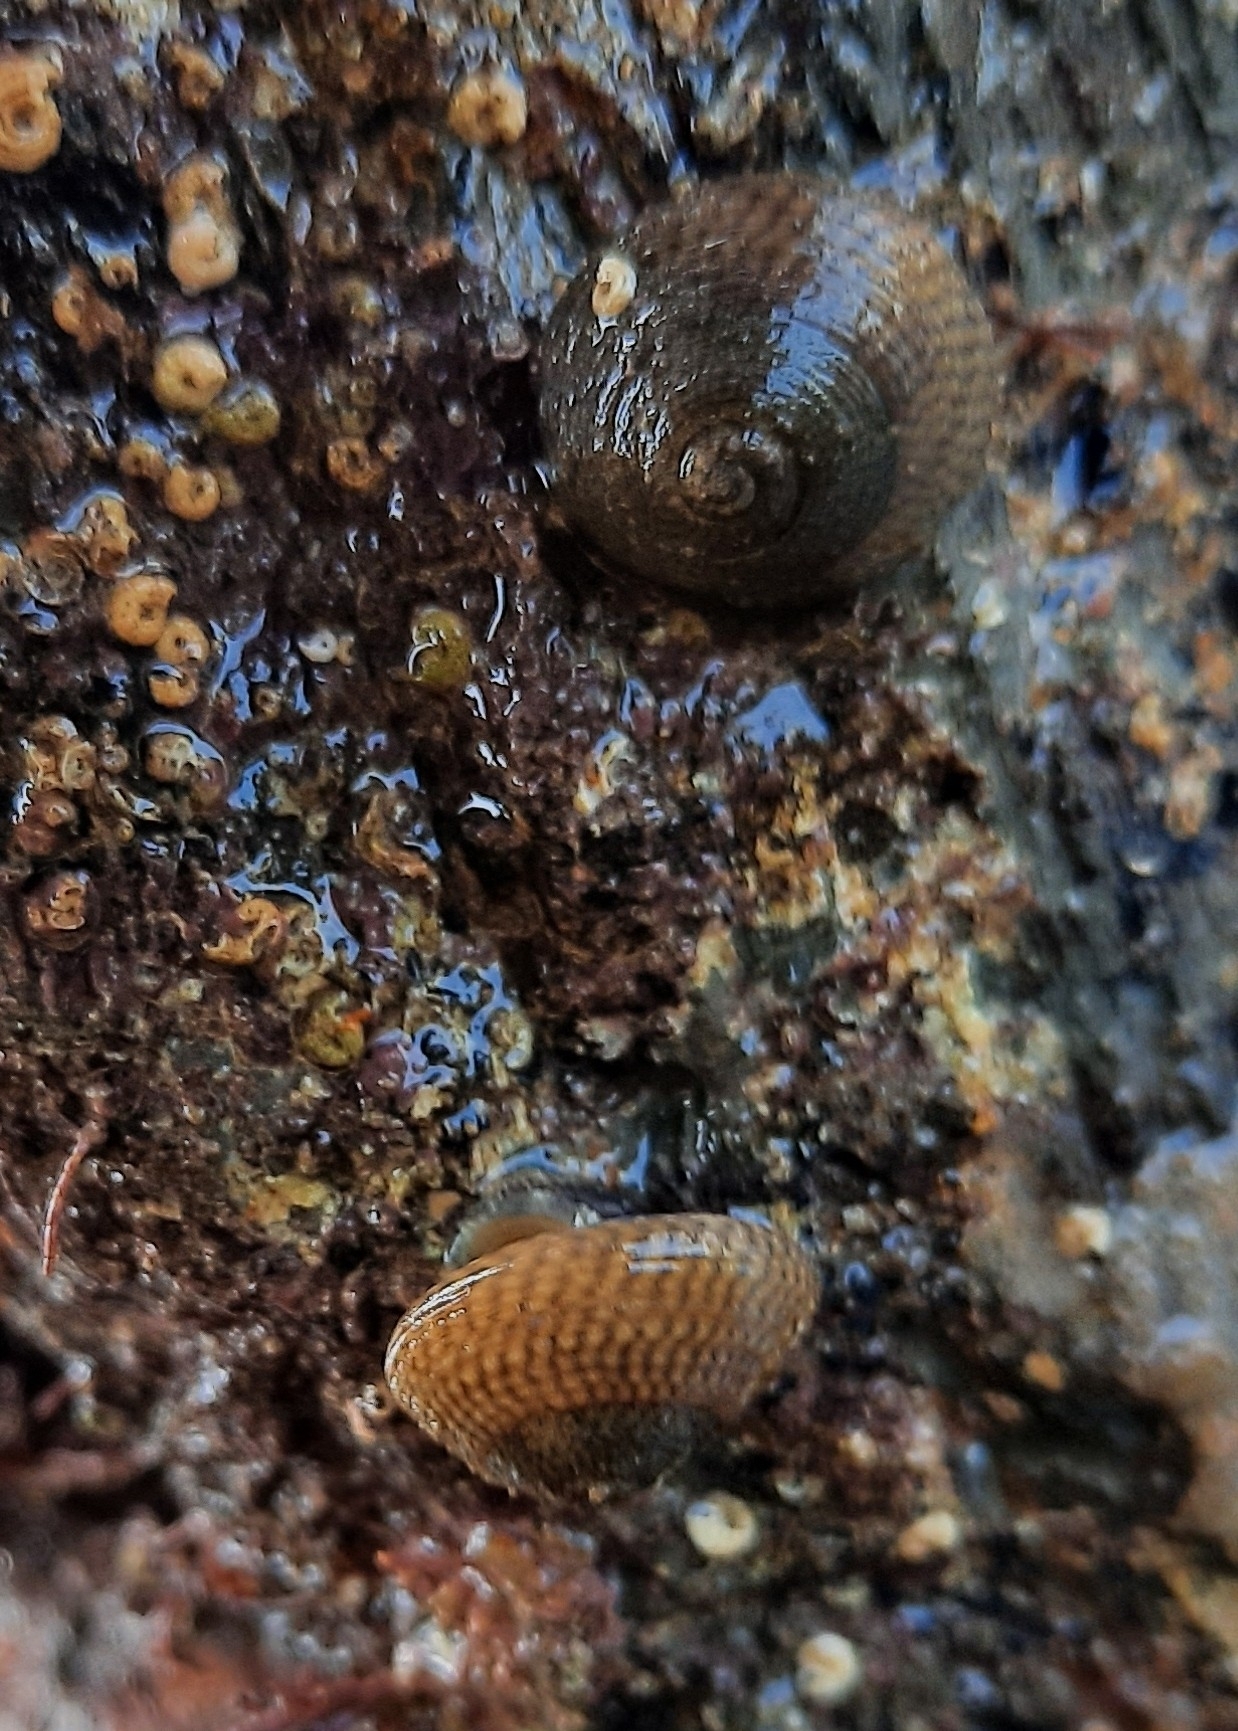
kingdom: Animalia
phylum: Mollusca
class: Gastropoda
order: Trochida
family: Trochidae
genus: Steromphala
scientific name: Steromphala cineraria
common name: Grey top shell
